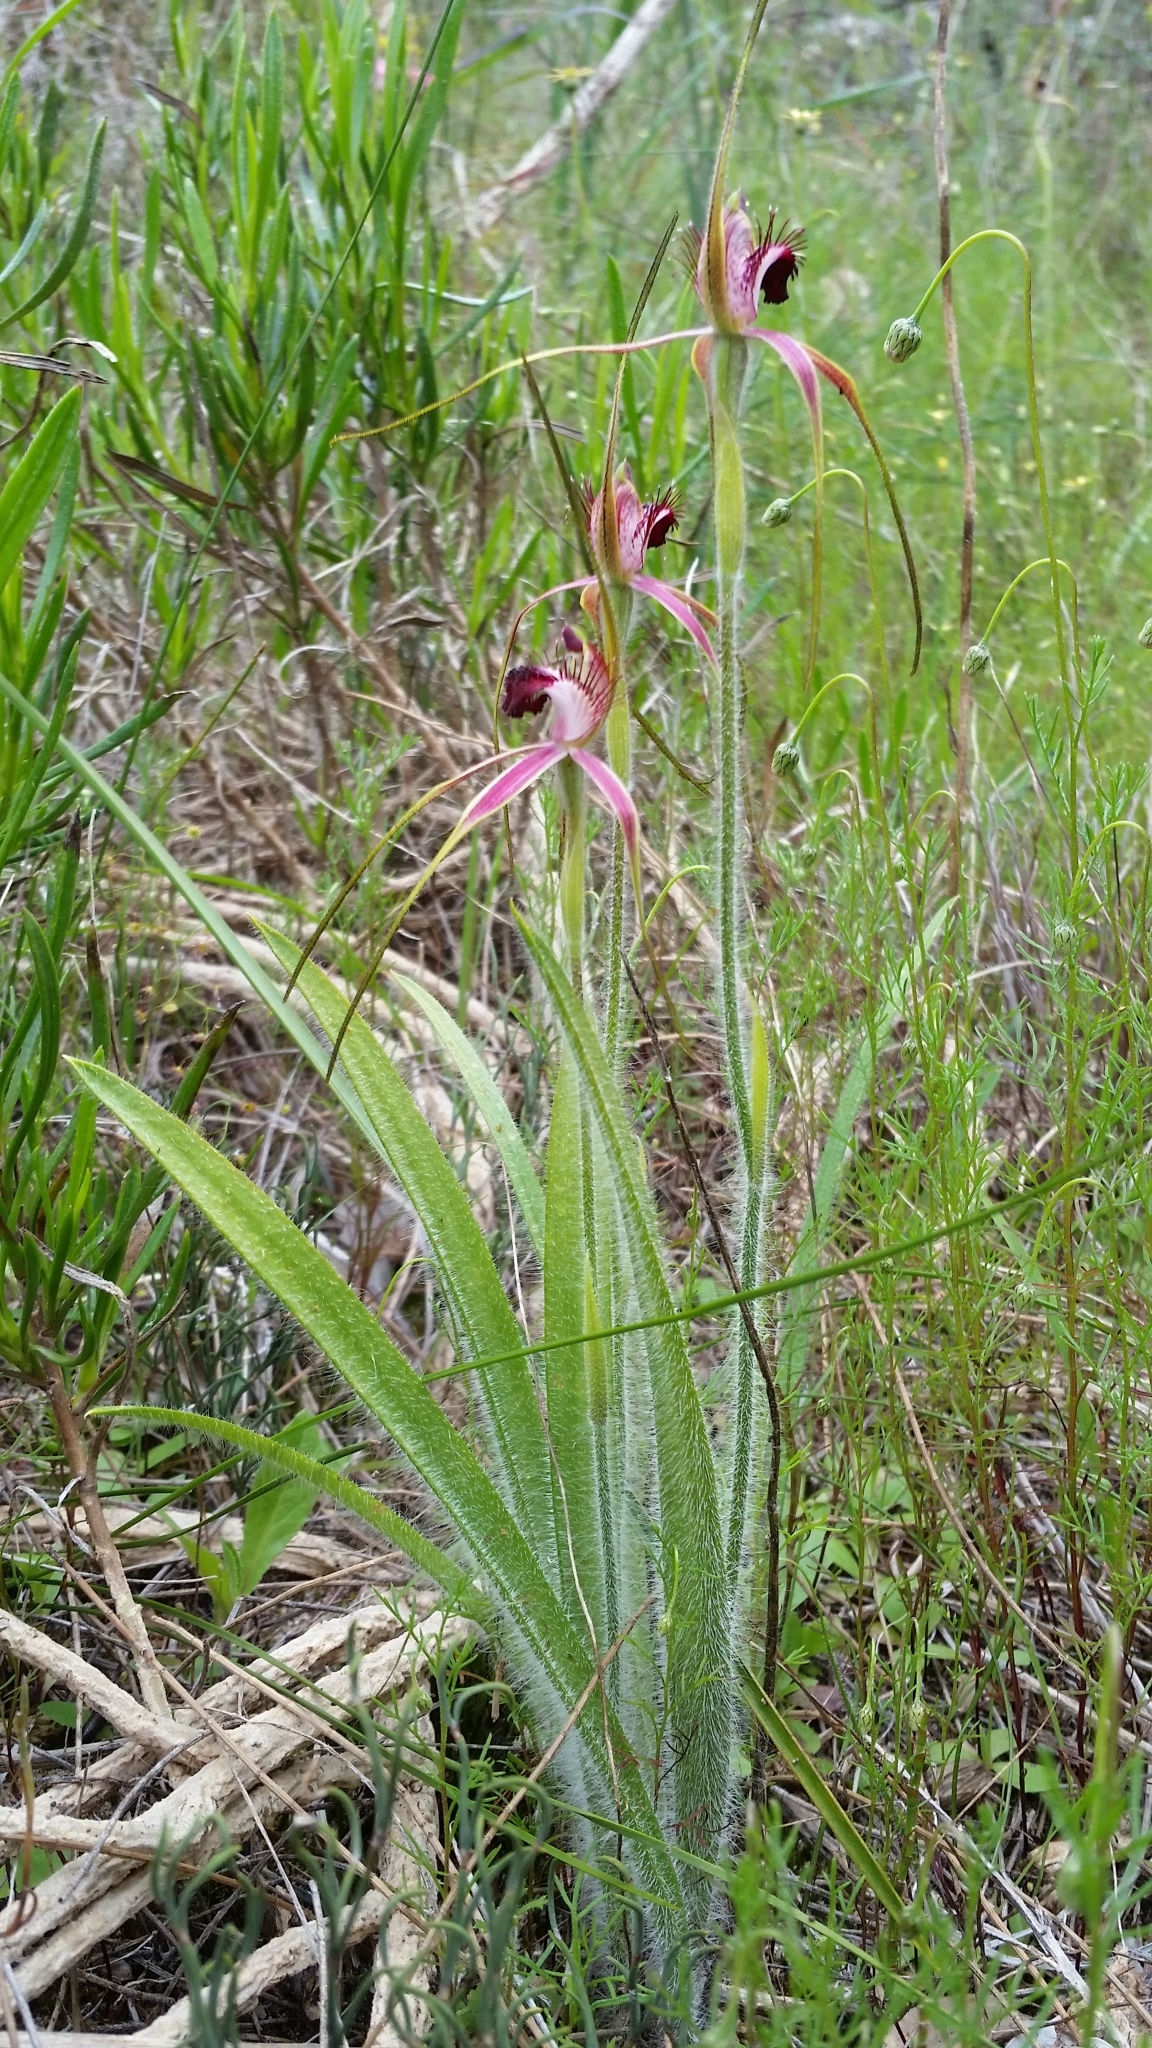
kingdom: Plantae
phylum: Tracheophyta
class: Liliopsida
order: Asparagales
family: Orchidaceae
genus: Caladenia
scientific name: Caladenia arenicola
